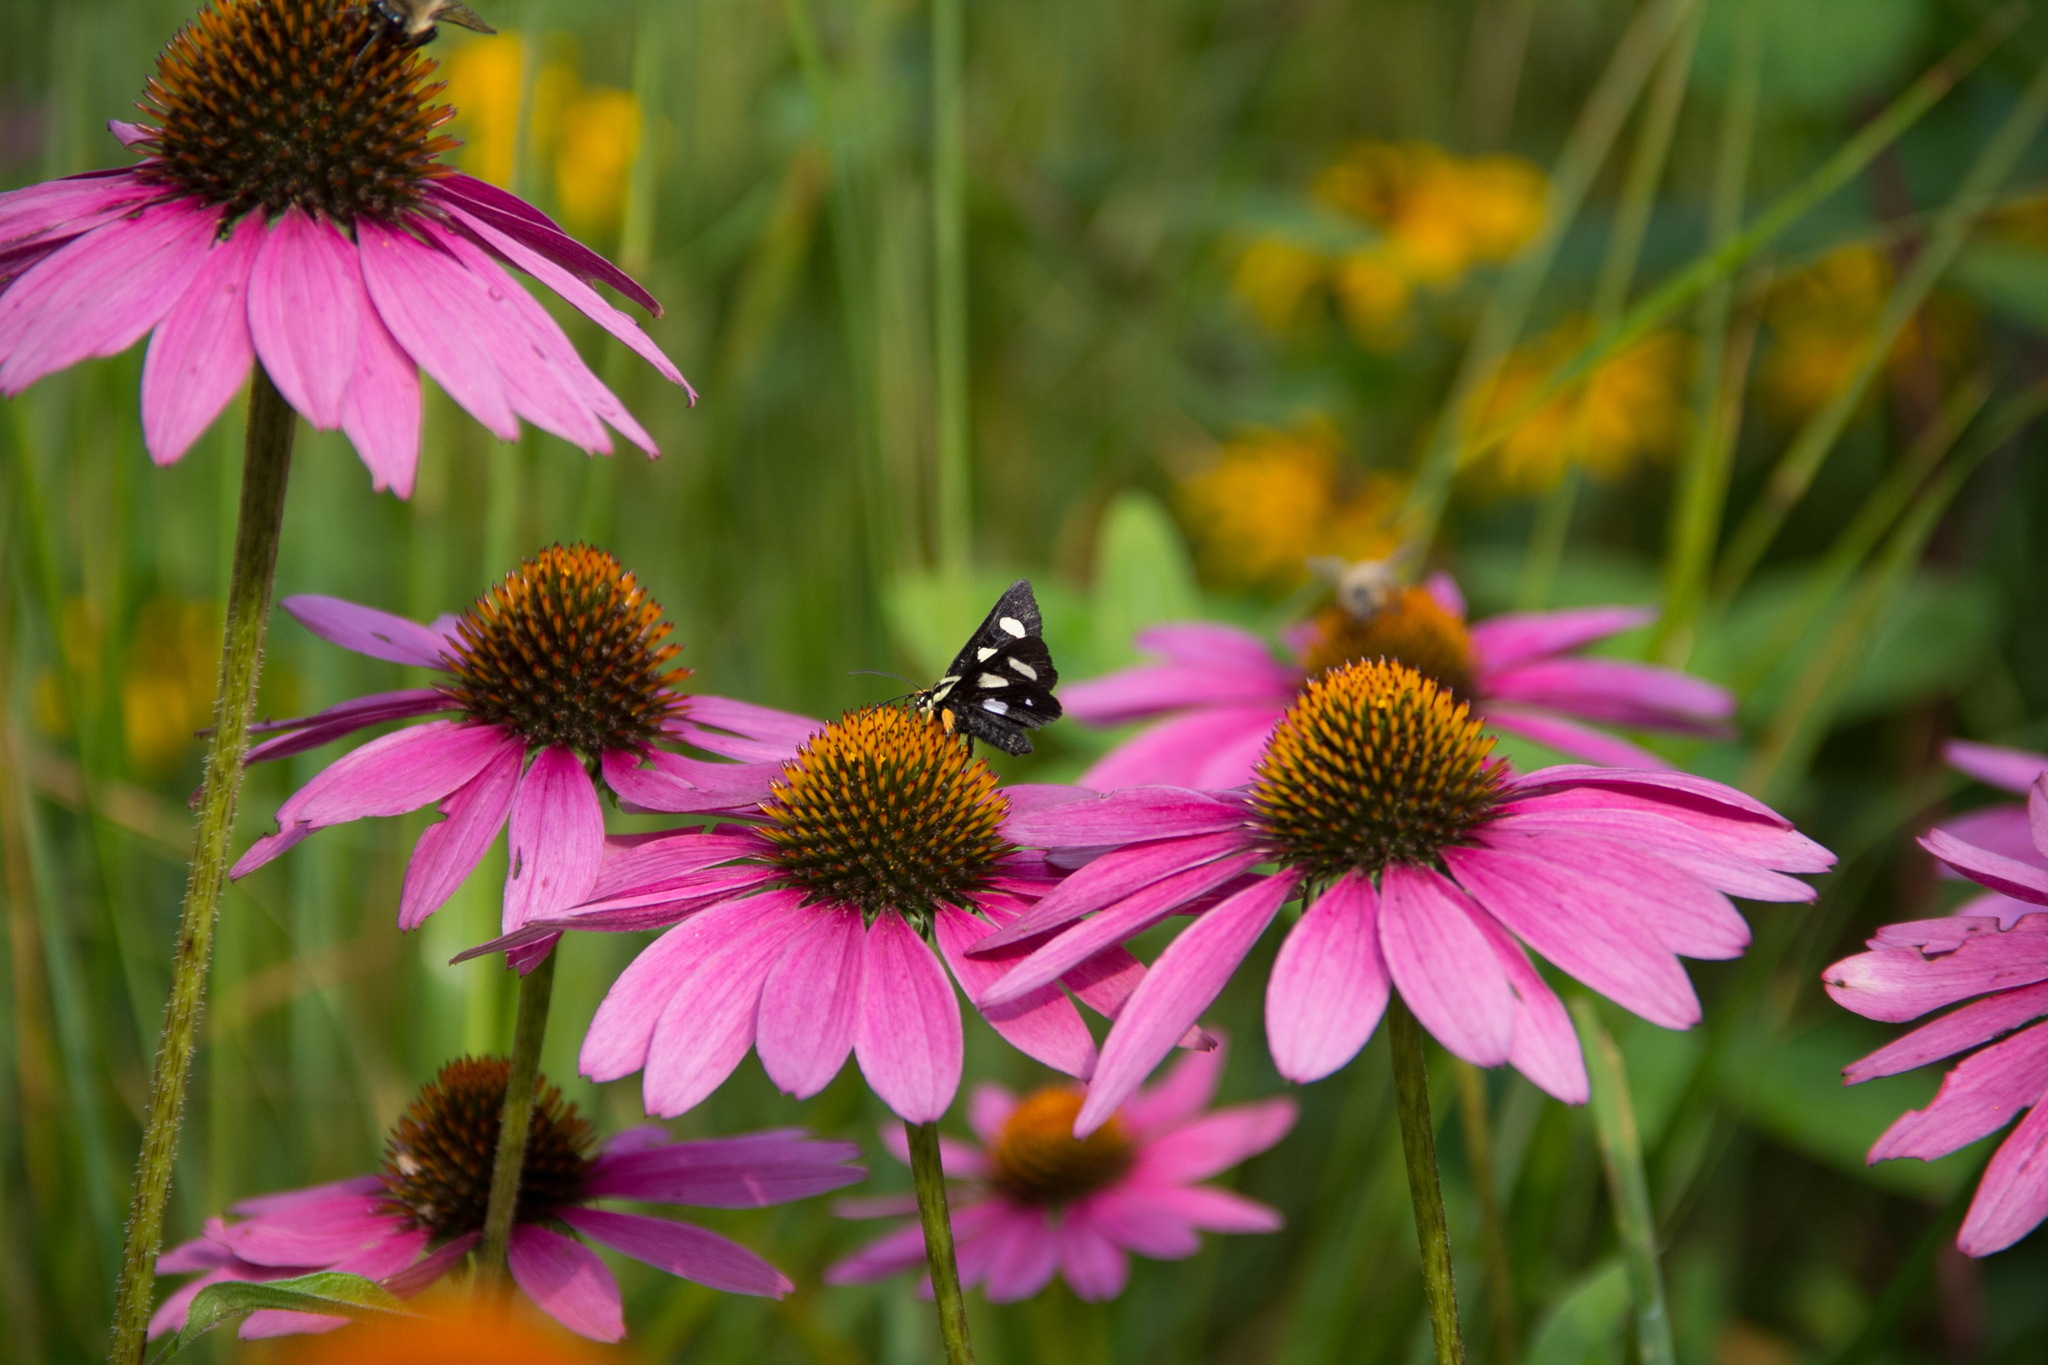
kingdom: Animalia
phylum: Arthropoda
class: Insecta
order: Lepidoptera
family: Noctuidae
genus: Alypia
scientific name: Alypia octomaculata
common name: Eight-spotted forester
